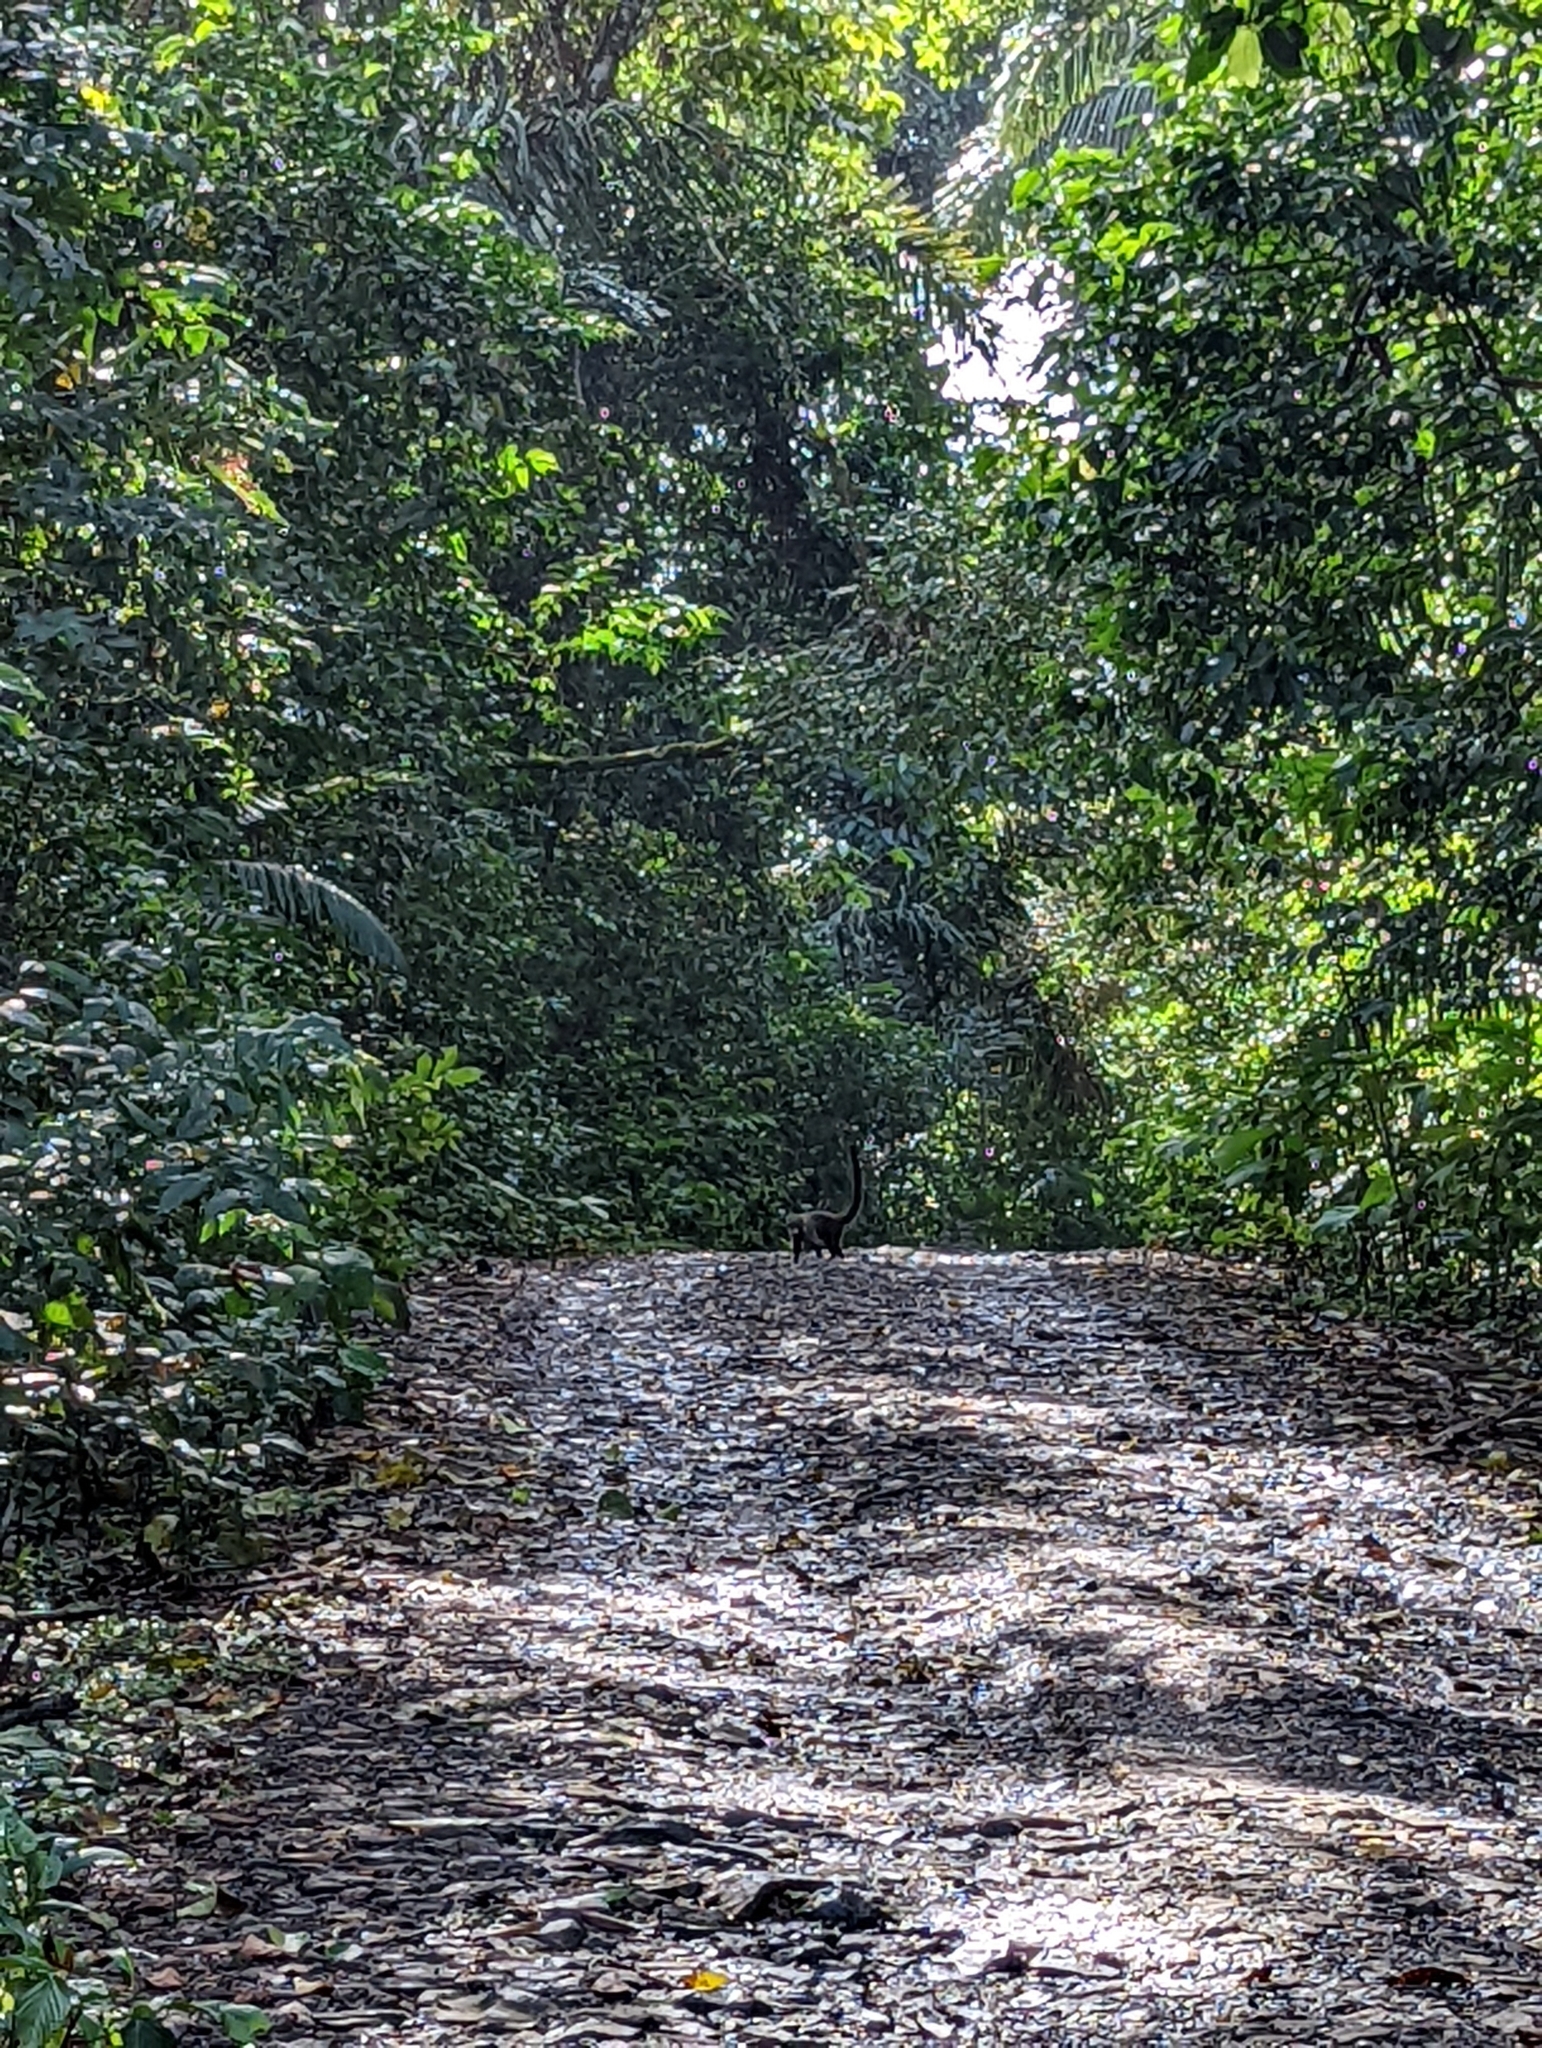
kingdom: Animalia
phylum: Chordata
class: Mammalia
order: Carnivora
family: Procyonidae
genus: Nasua
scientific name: Nasua narica
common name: White-nosed coati
